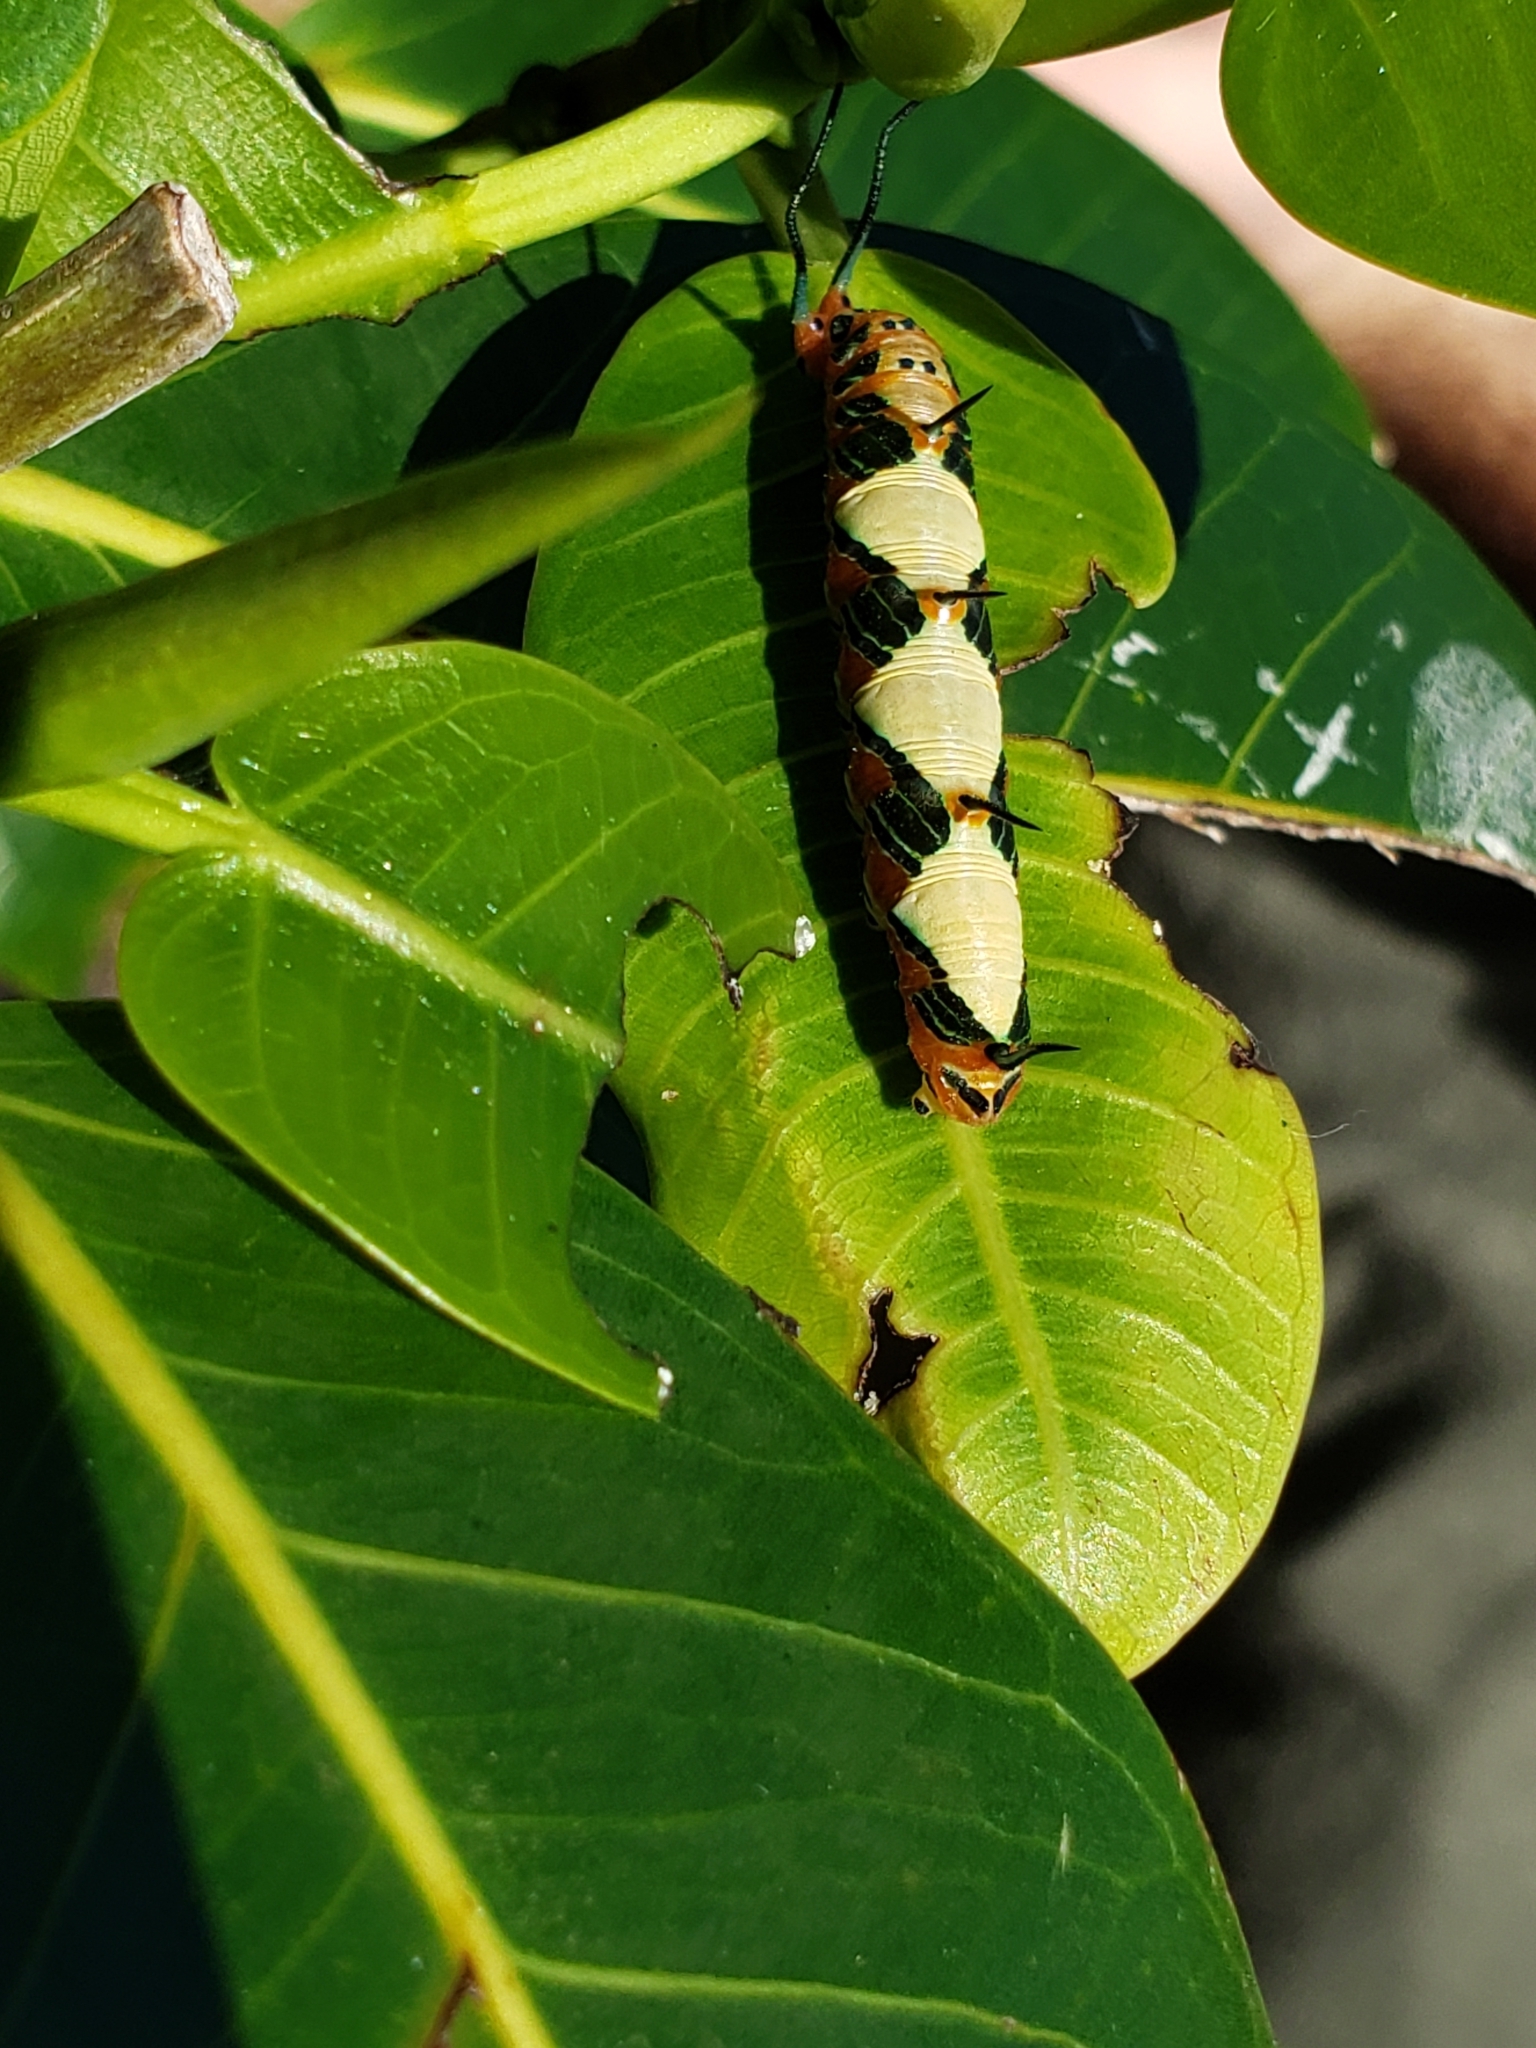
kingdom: Animalia
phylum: Arthropoda
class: Insecta
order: Lepidoptera
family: Nymphalidae
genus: Marpesia
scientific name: Marpesia petreus
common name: Red dagger wing
